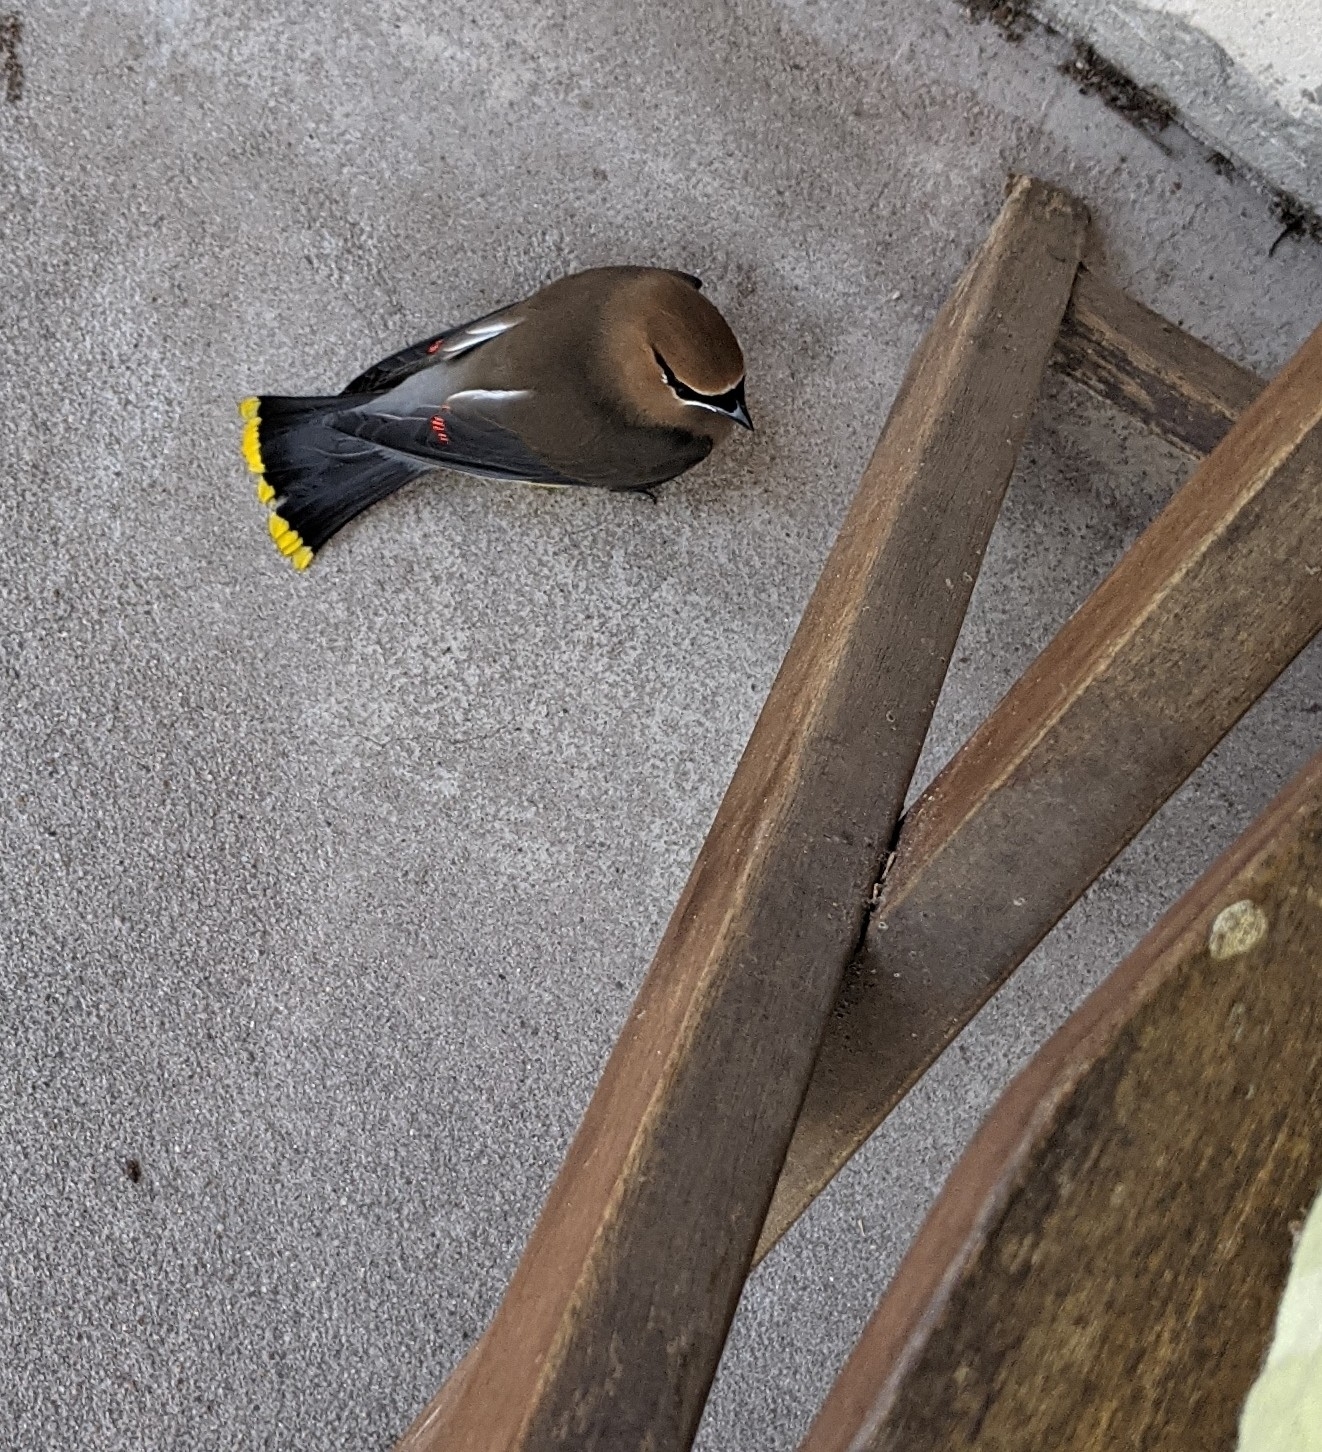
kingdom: Animalia
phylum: Chordata
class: Aves
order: Passeriformes
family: Bombycillidae
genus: Bombycilla
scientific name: Bombycilla cedrorum
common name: Cedar waxwing
